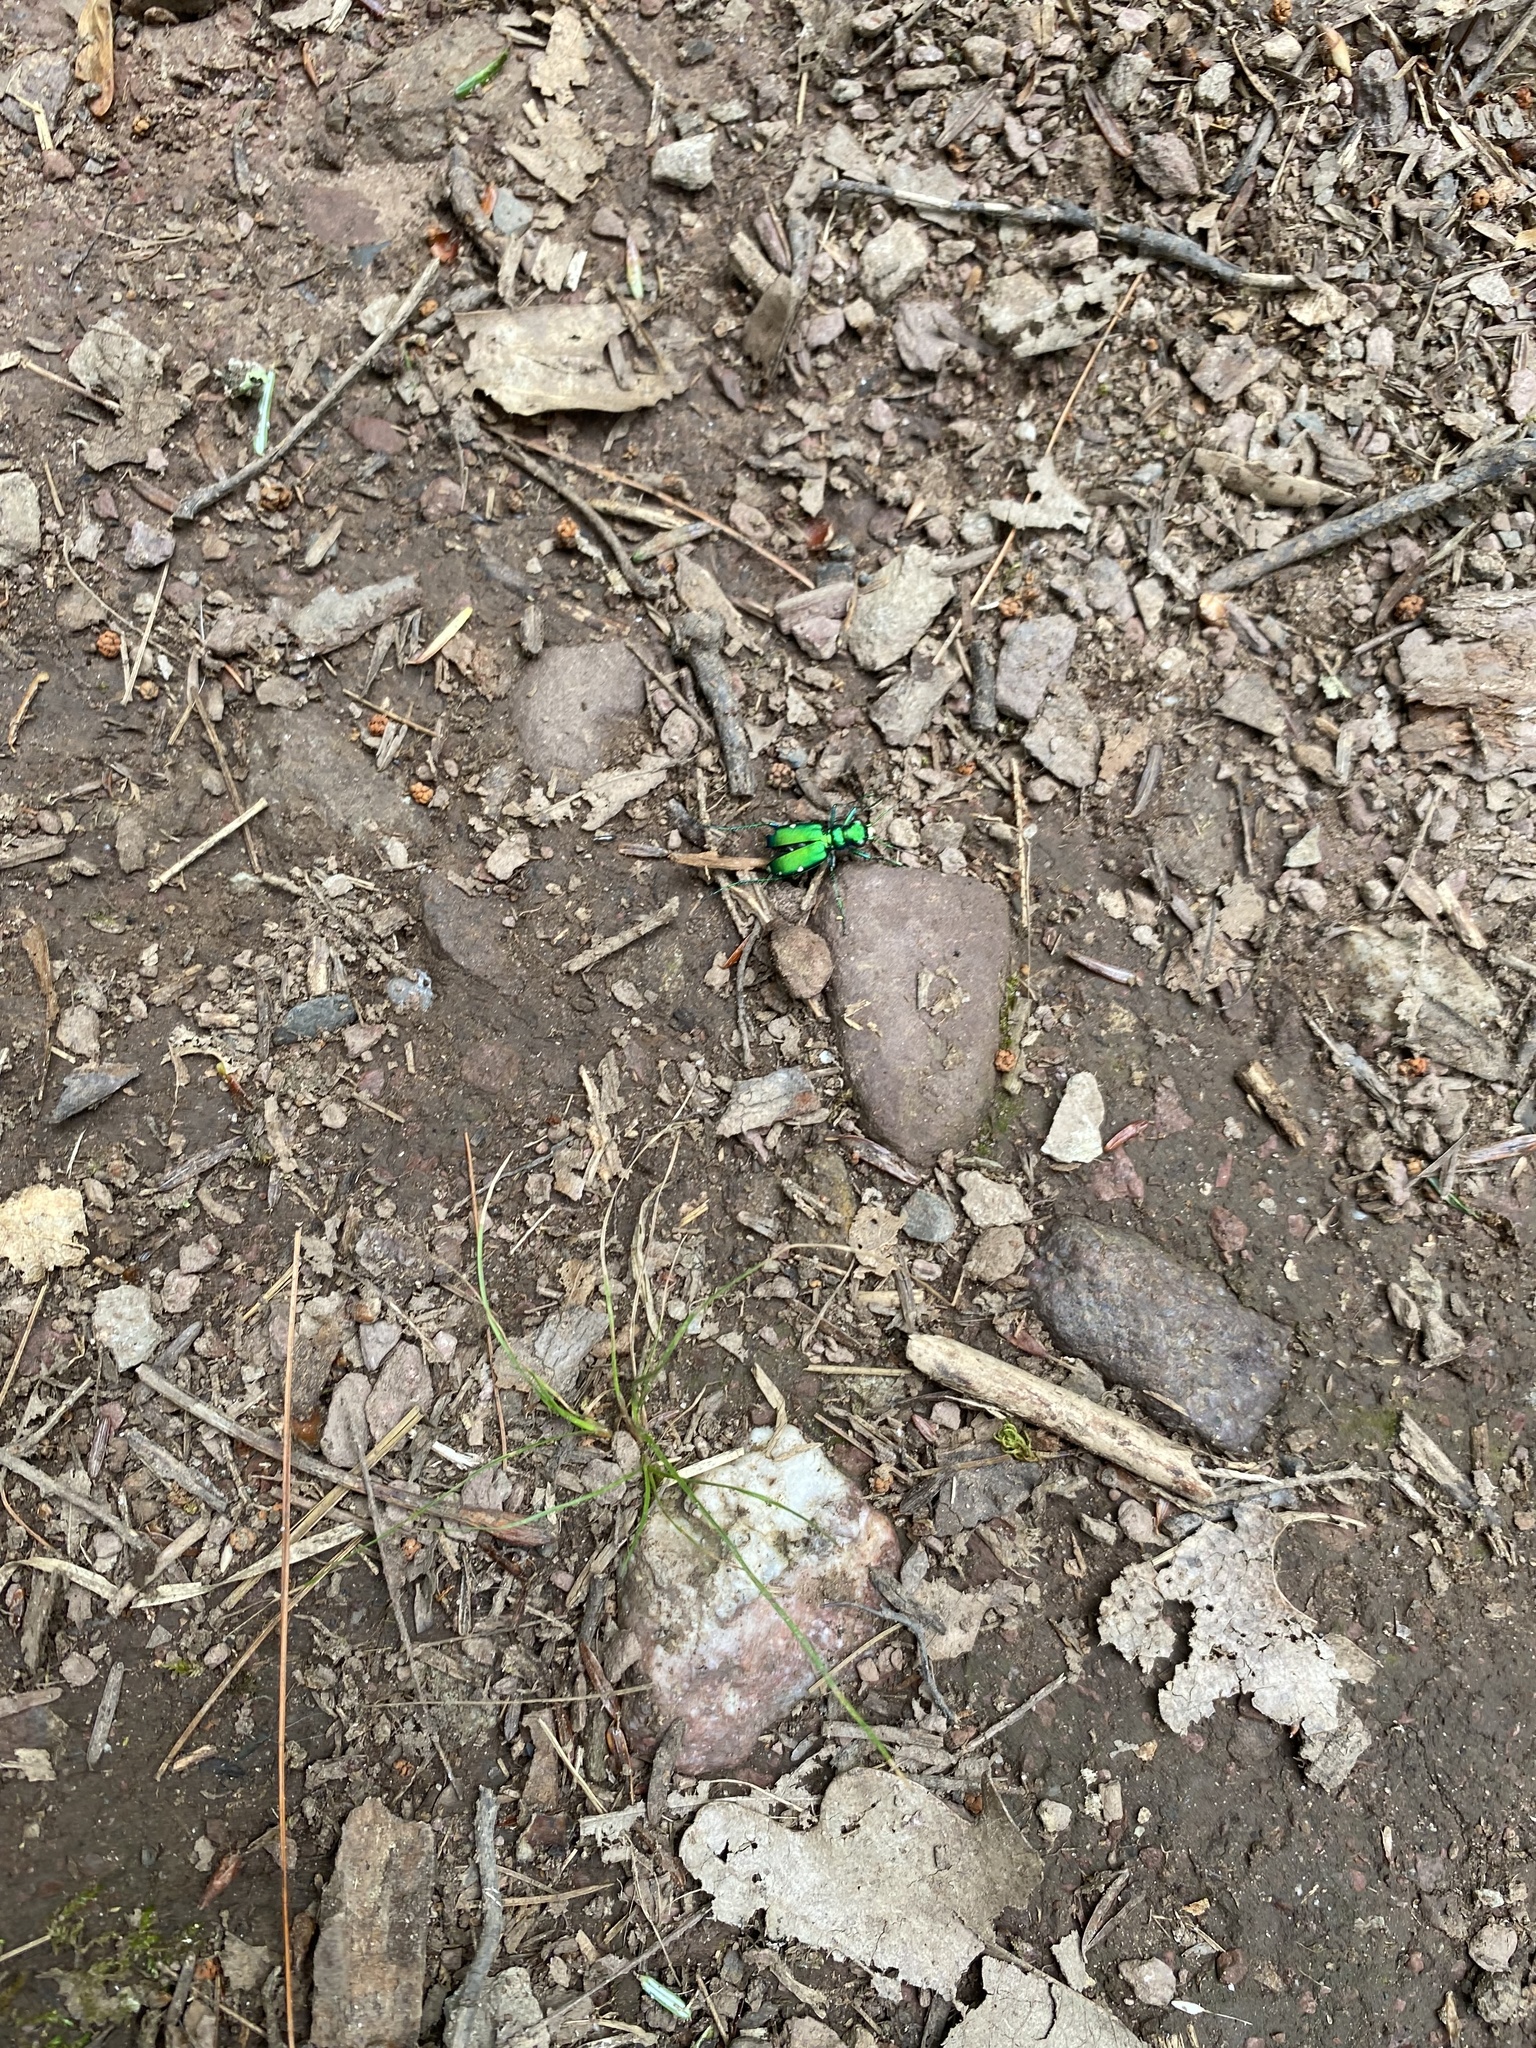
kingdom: Animalia
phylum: Arthropoda
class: Insecta
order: Coleoptera
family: Carabidae
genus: Cicindela
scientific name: Cicindela sexguttata
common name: Six-spotted tiger beetle
